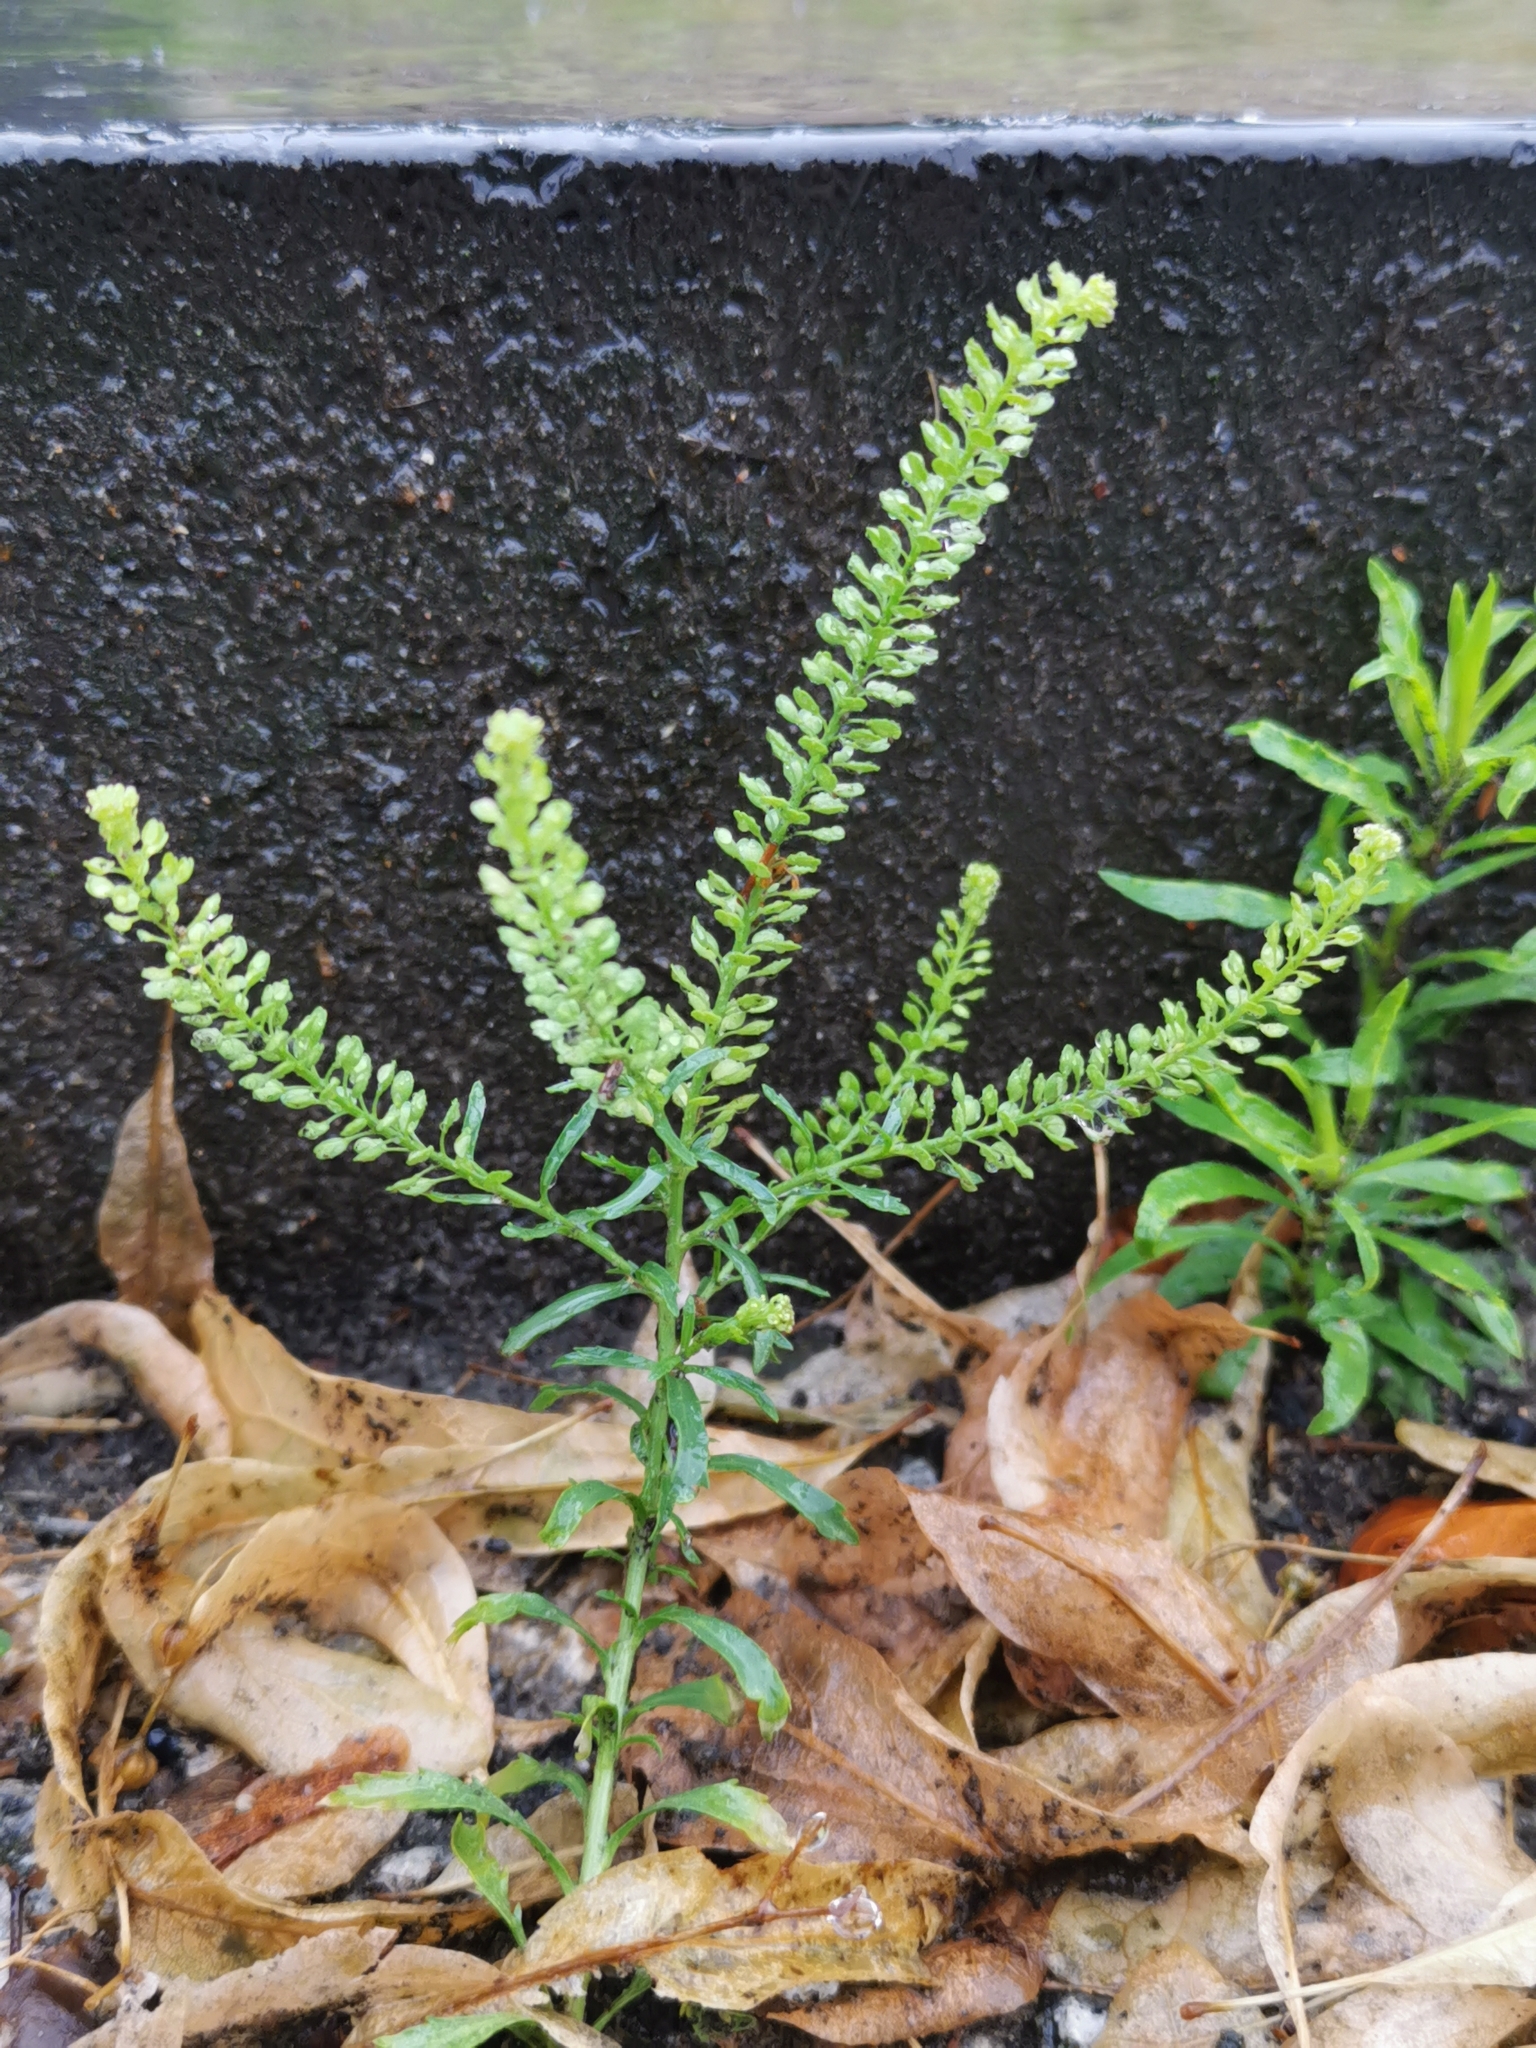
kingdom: Plantae
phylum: Tracheophyta
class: Magnoliopsida
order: Brassicales
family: Brassicaceae
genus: Lepidium
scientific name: Lepidium densiflorum
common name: Miner's pepperwort
